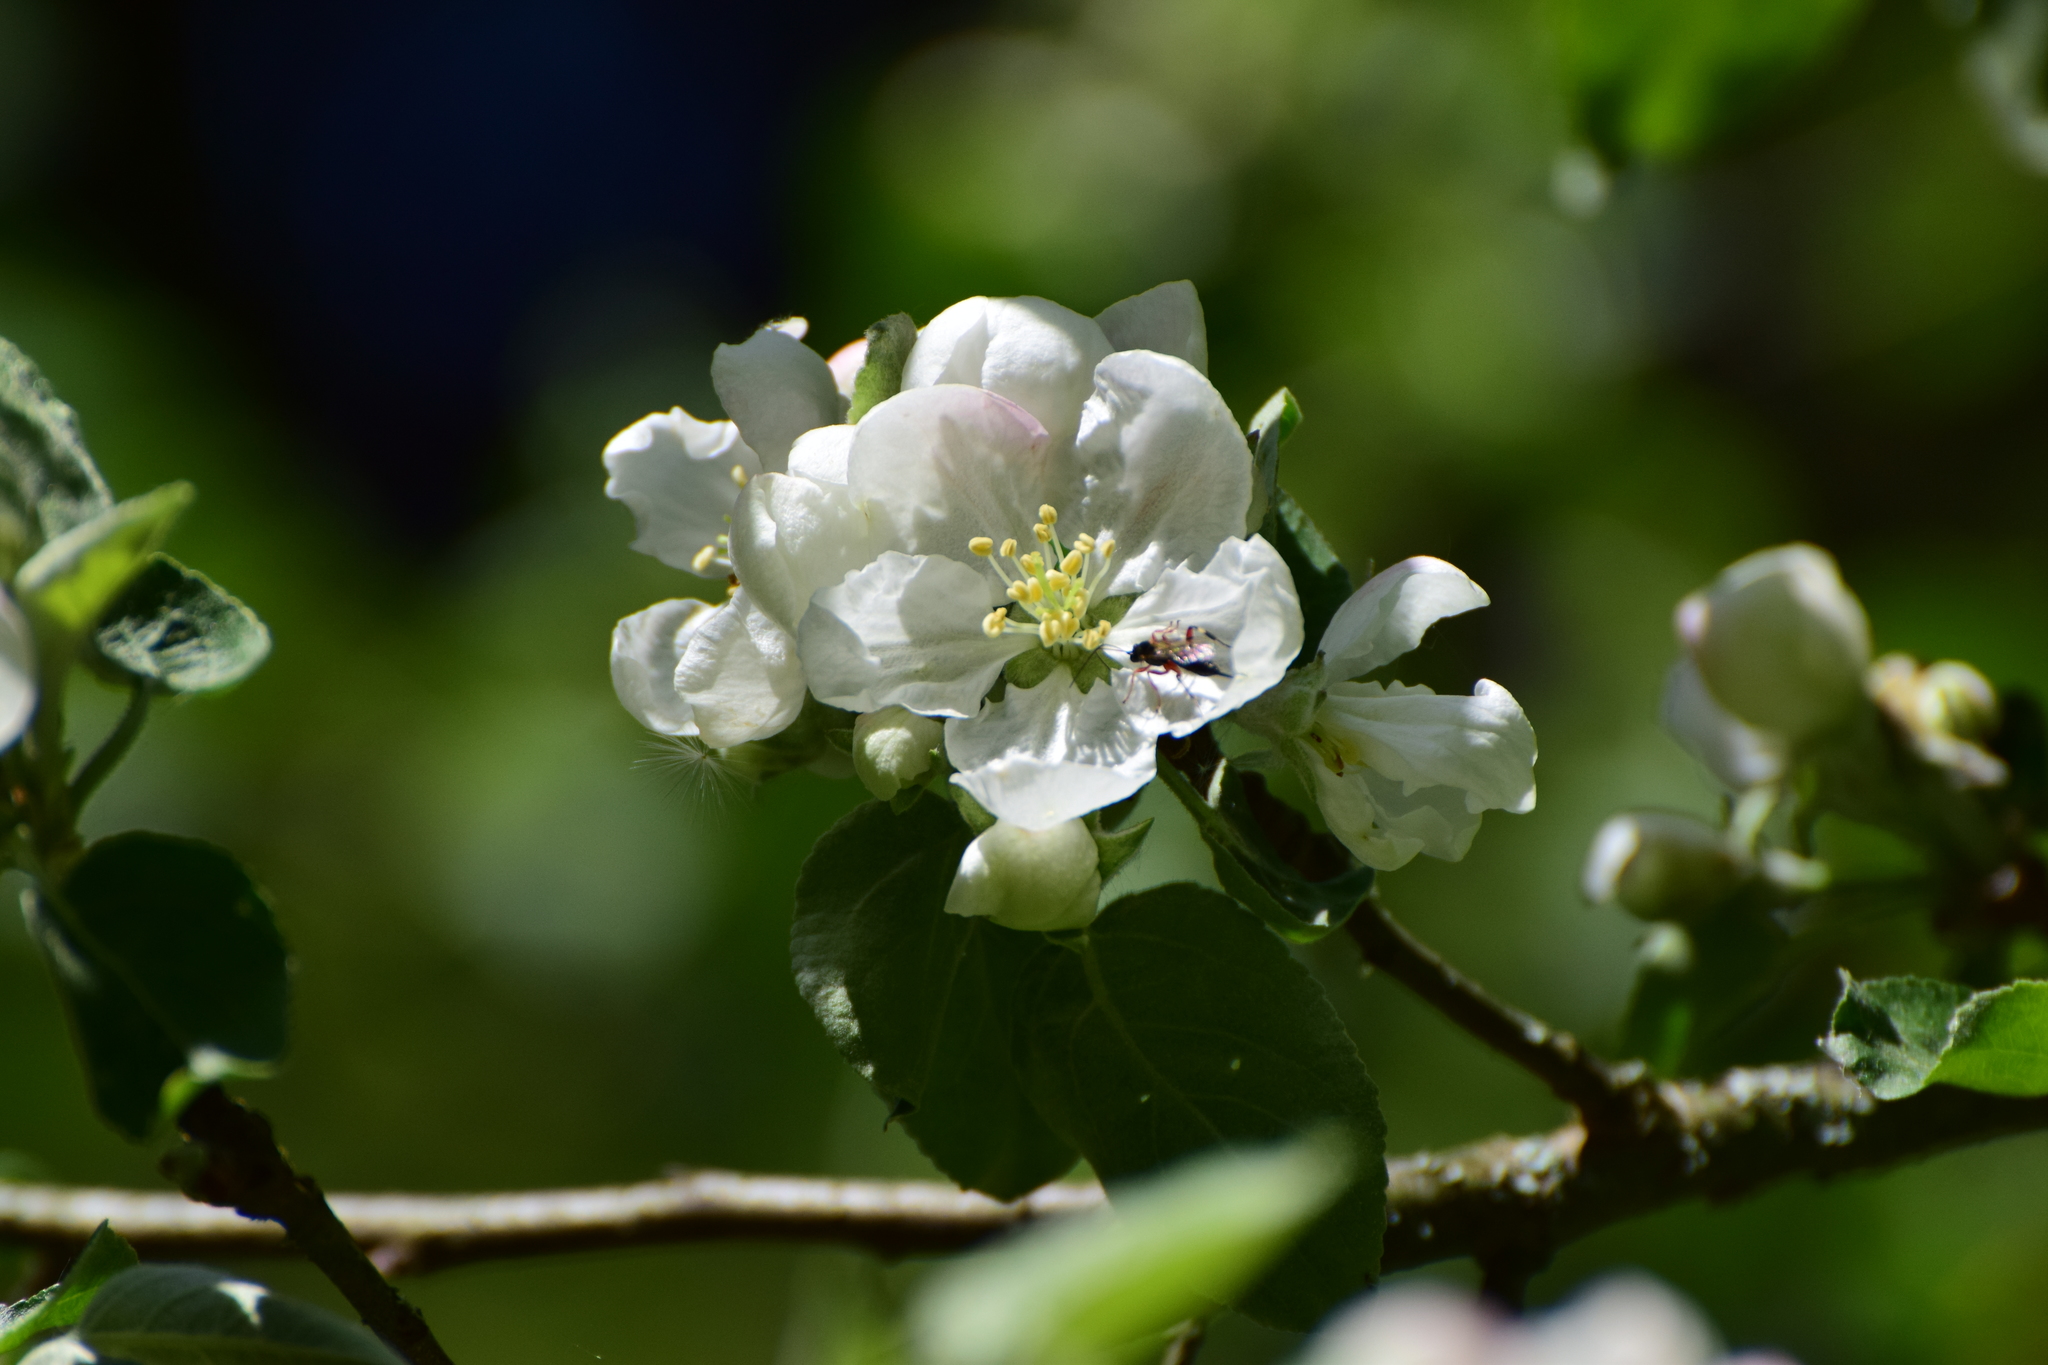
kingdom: Plantae
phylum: Tracheophyta
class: Magnoliopsida
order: Rosales
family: Rosaceae
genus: Malus
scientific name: Malus domestica
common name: Apple
